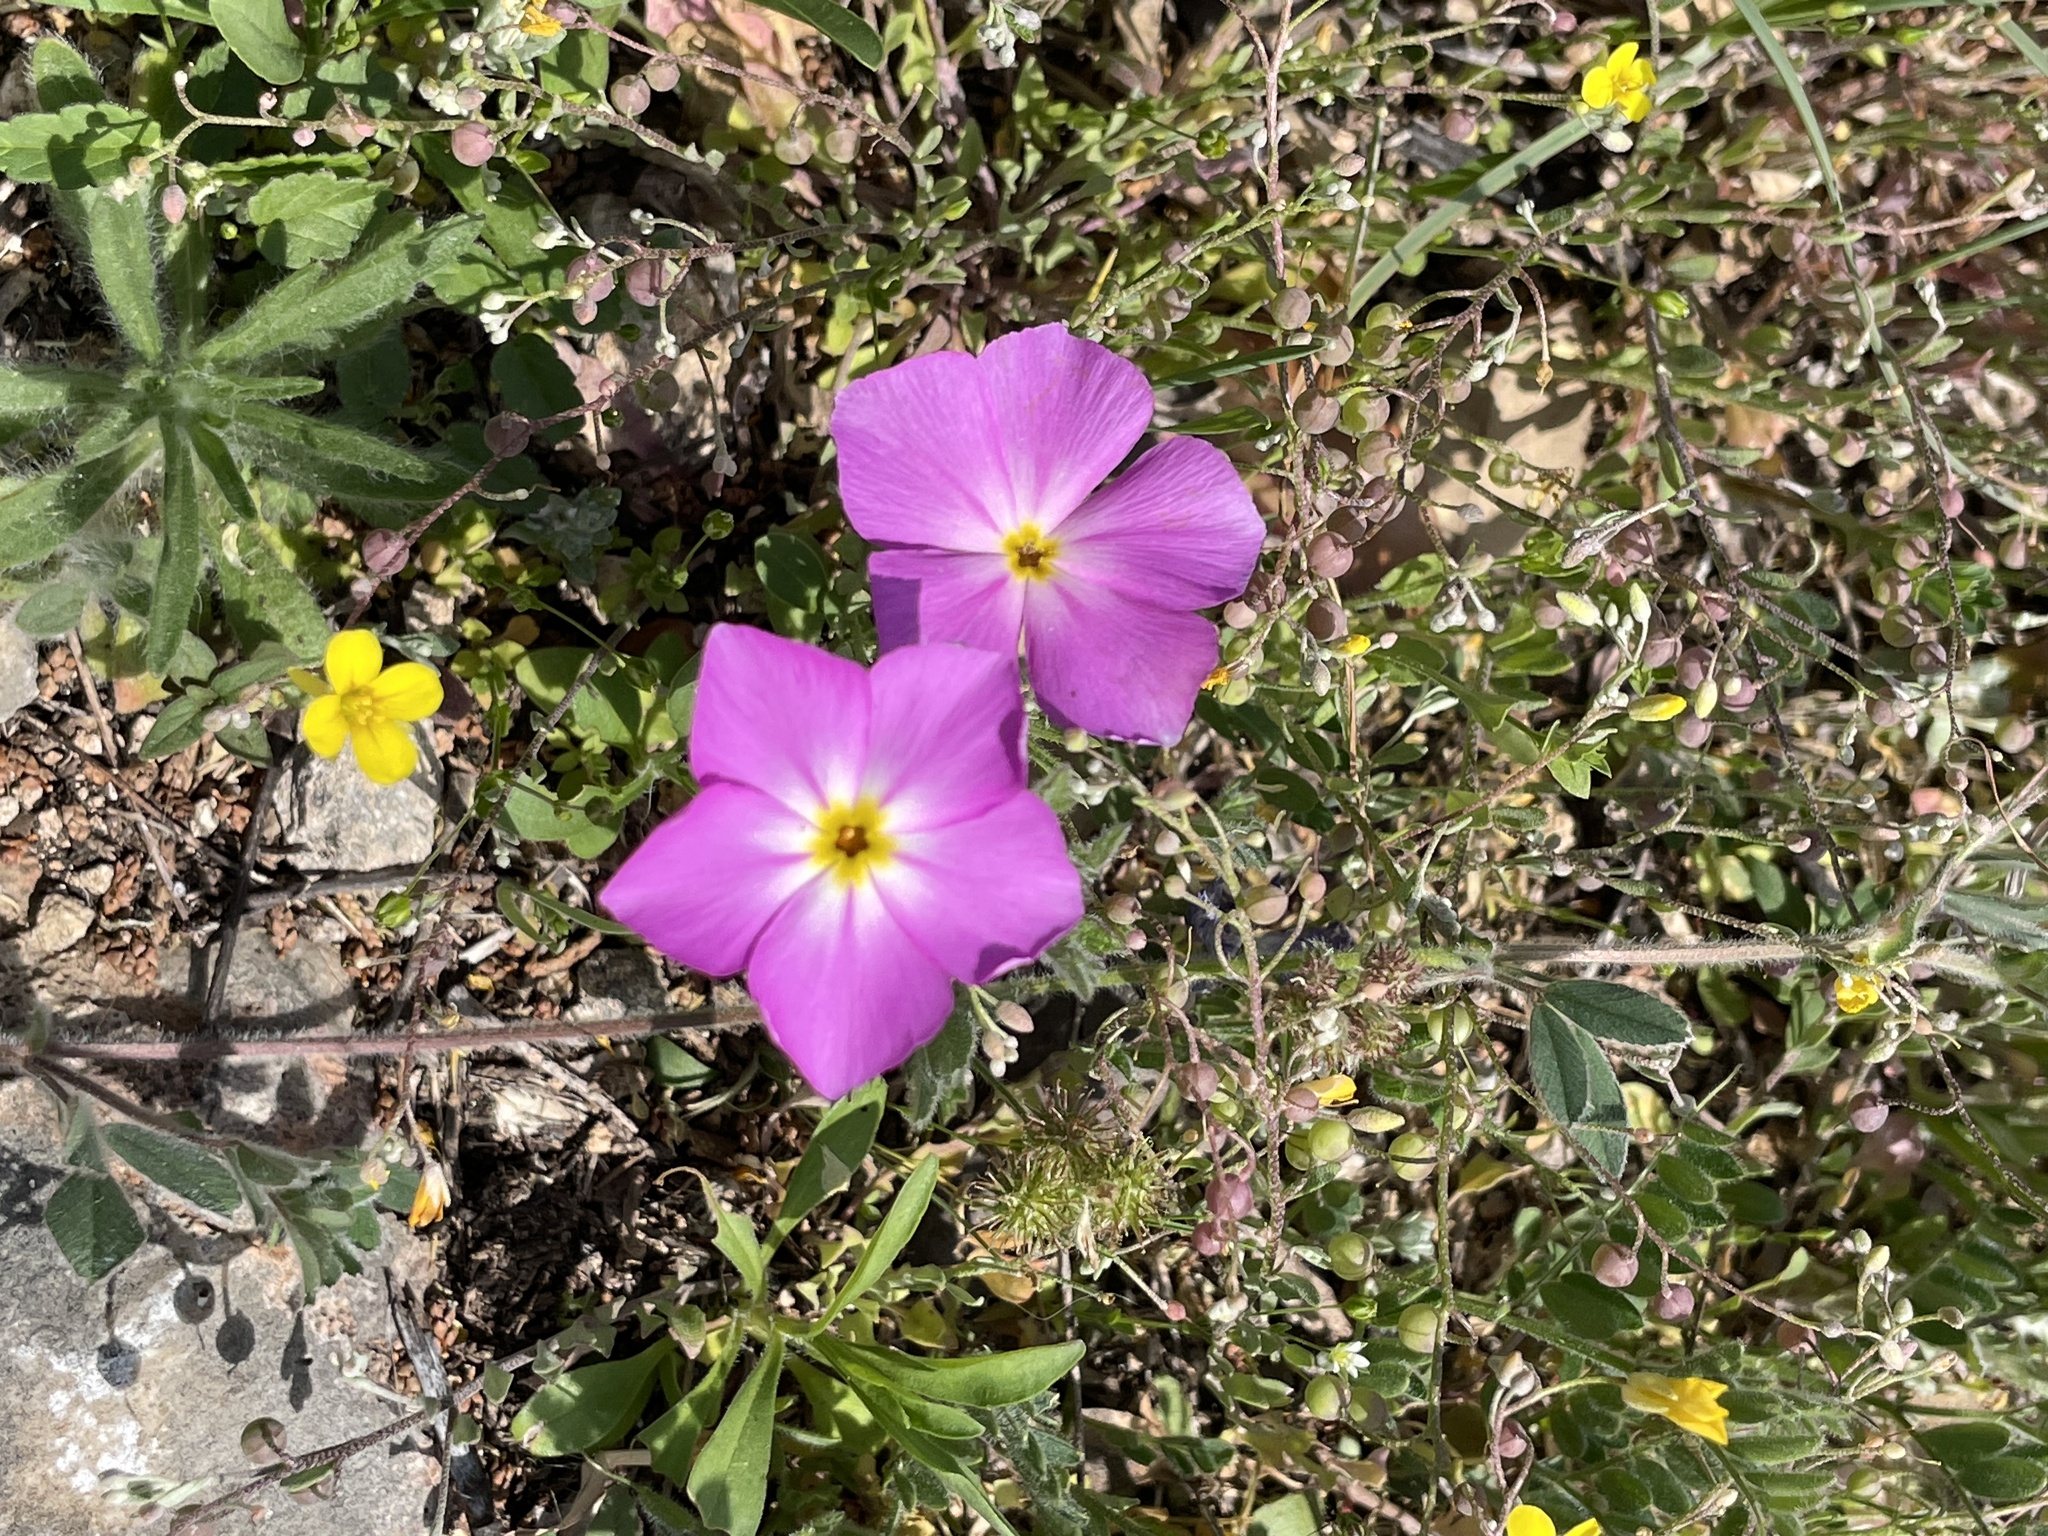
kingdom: Plantae
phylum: Tracheophyta
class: Magnoliopsida
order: Ericales
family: Polemoniaceae
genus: Phlox
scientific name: Phlox roemeriana
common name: Roemer's phlox
